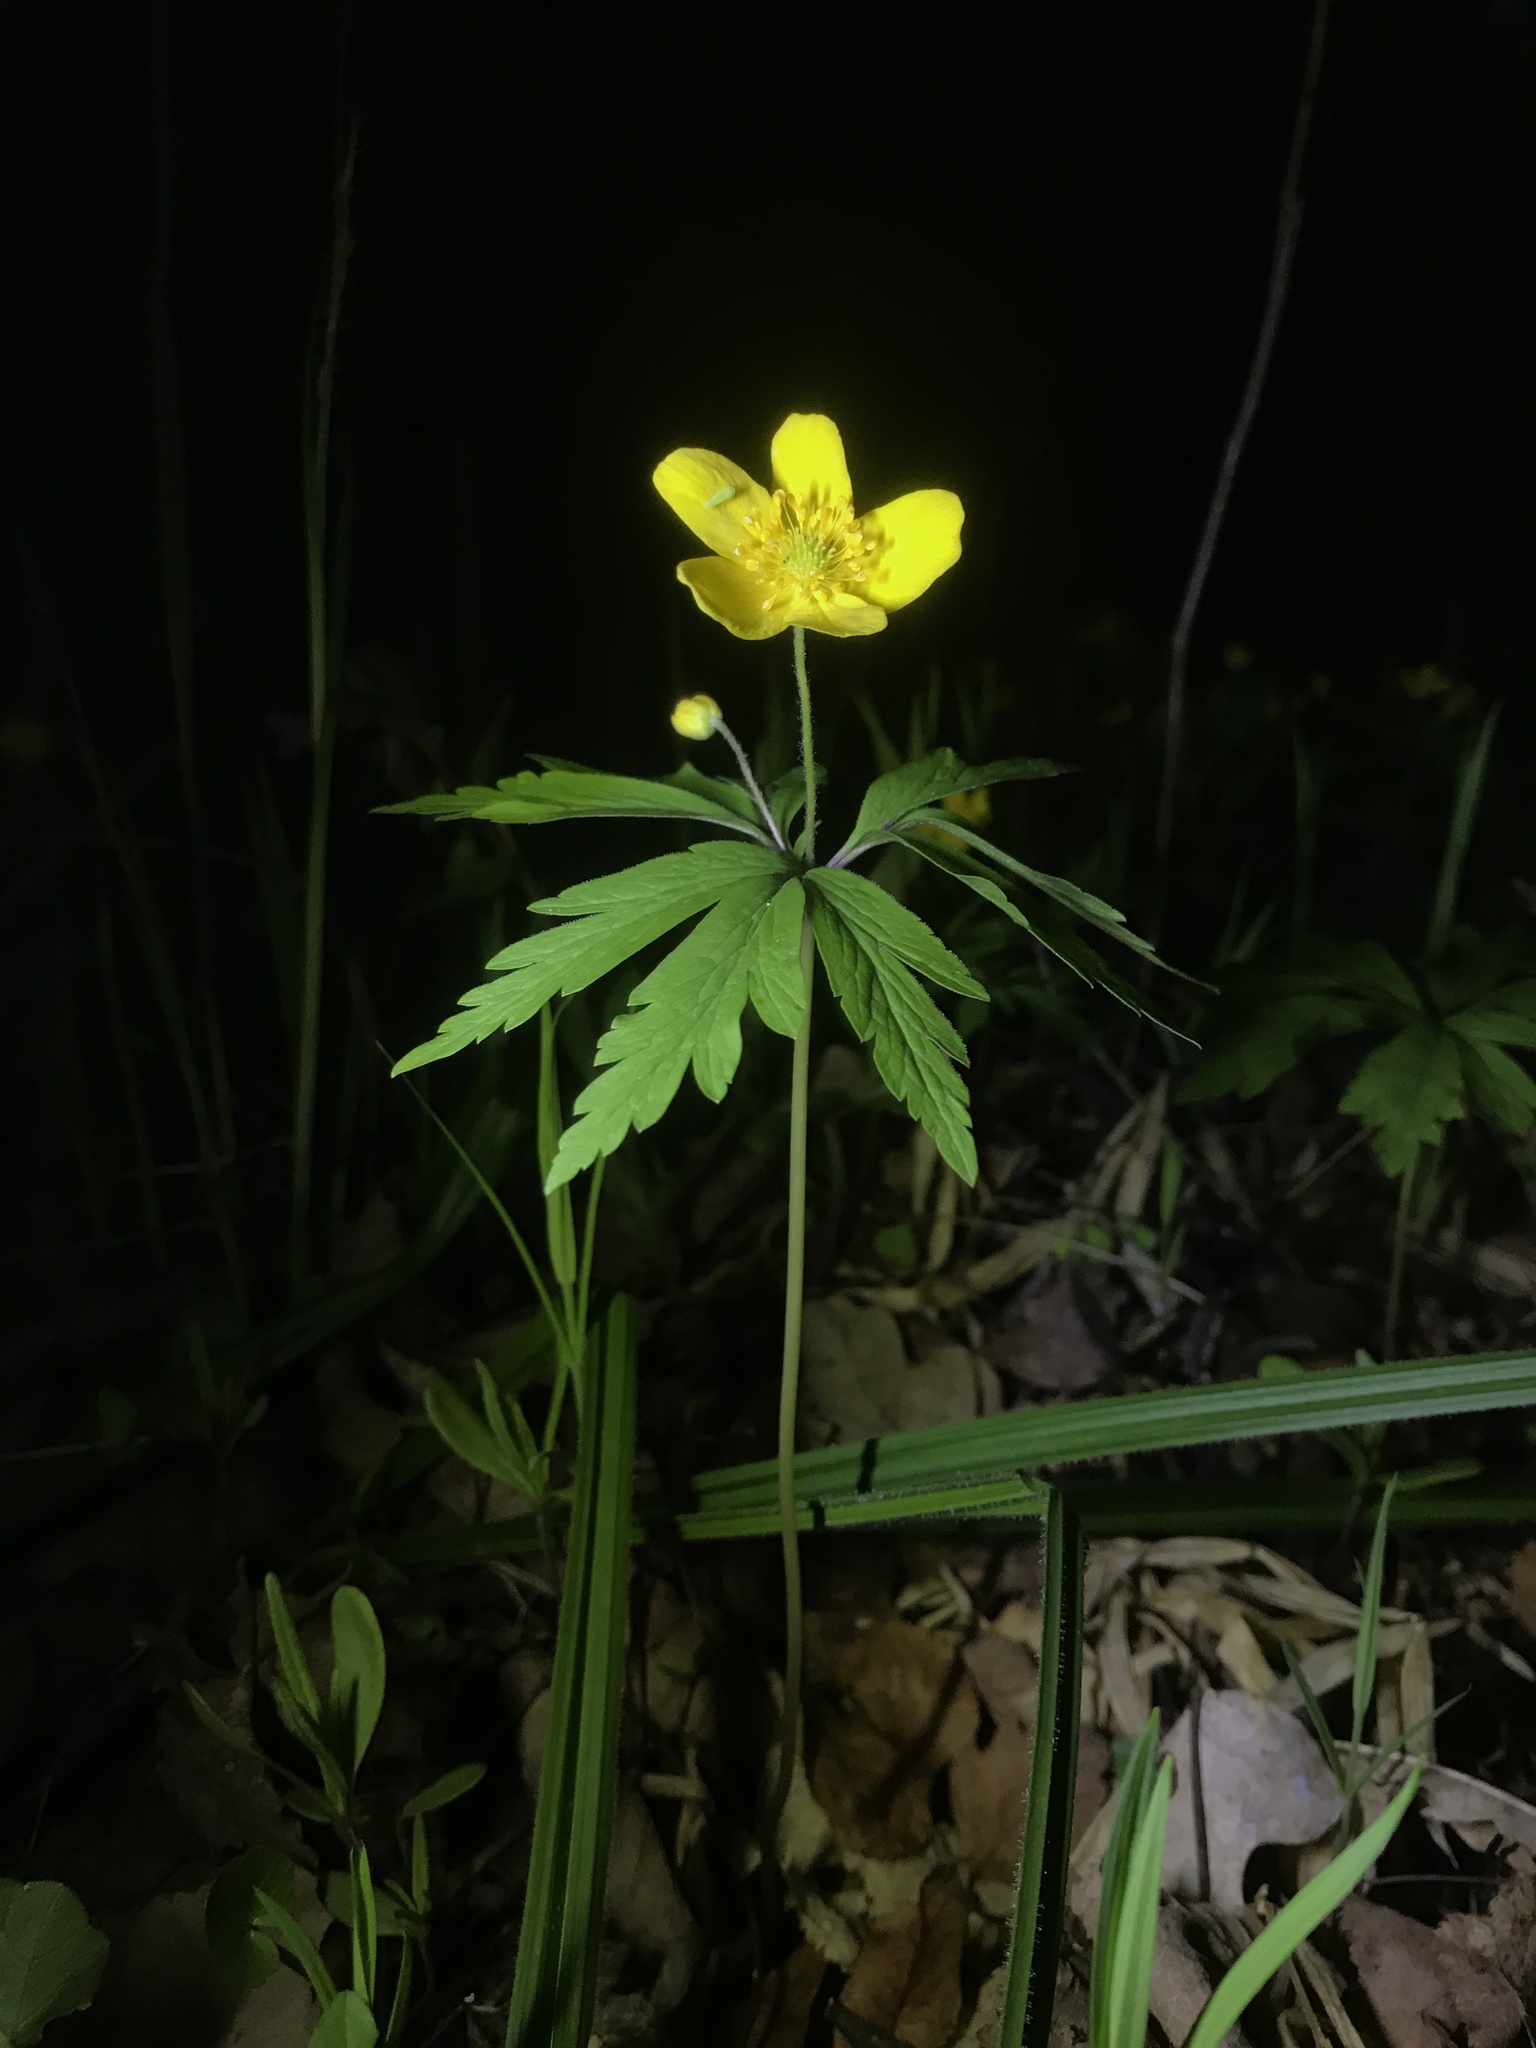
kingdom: Plantae
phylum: Tracheophyta
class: Magnoliopsida
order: Ranunculales
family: Ranunculaceae
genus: Anemone
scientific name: Anemone ranunculoides
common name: Yellow anemone
